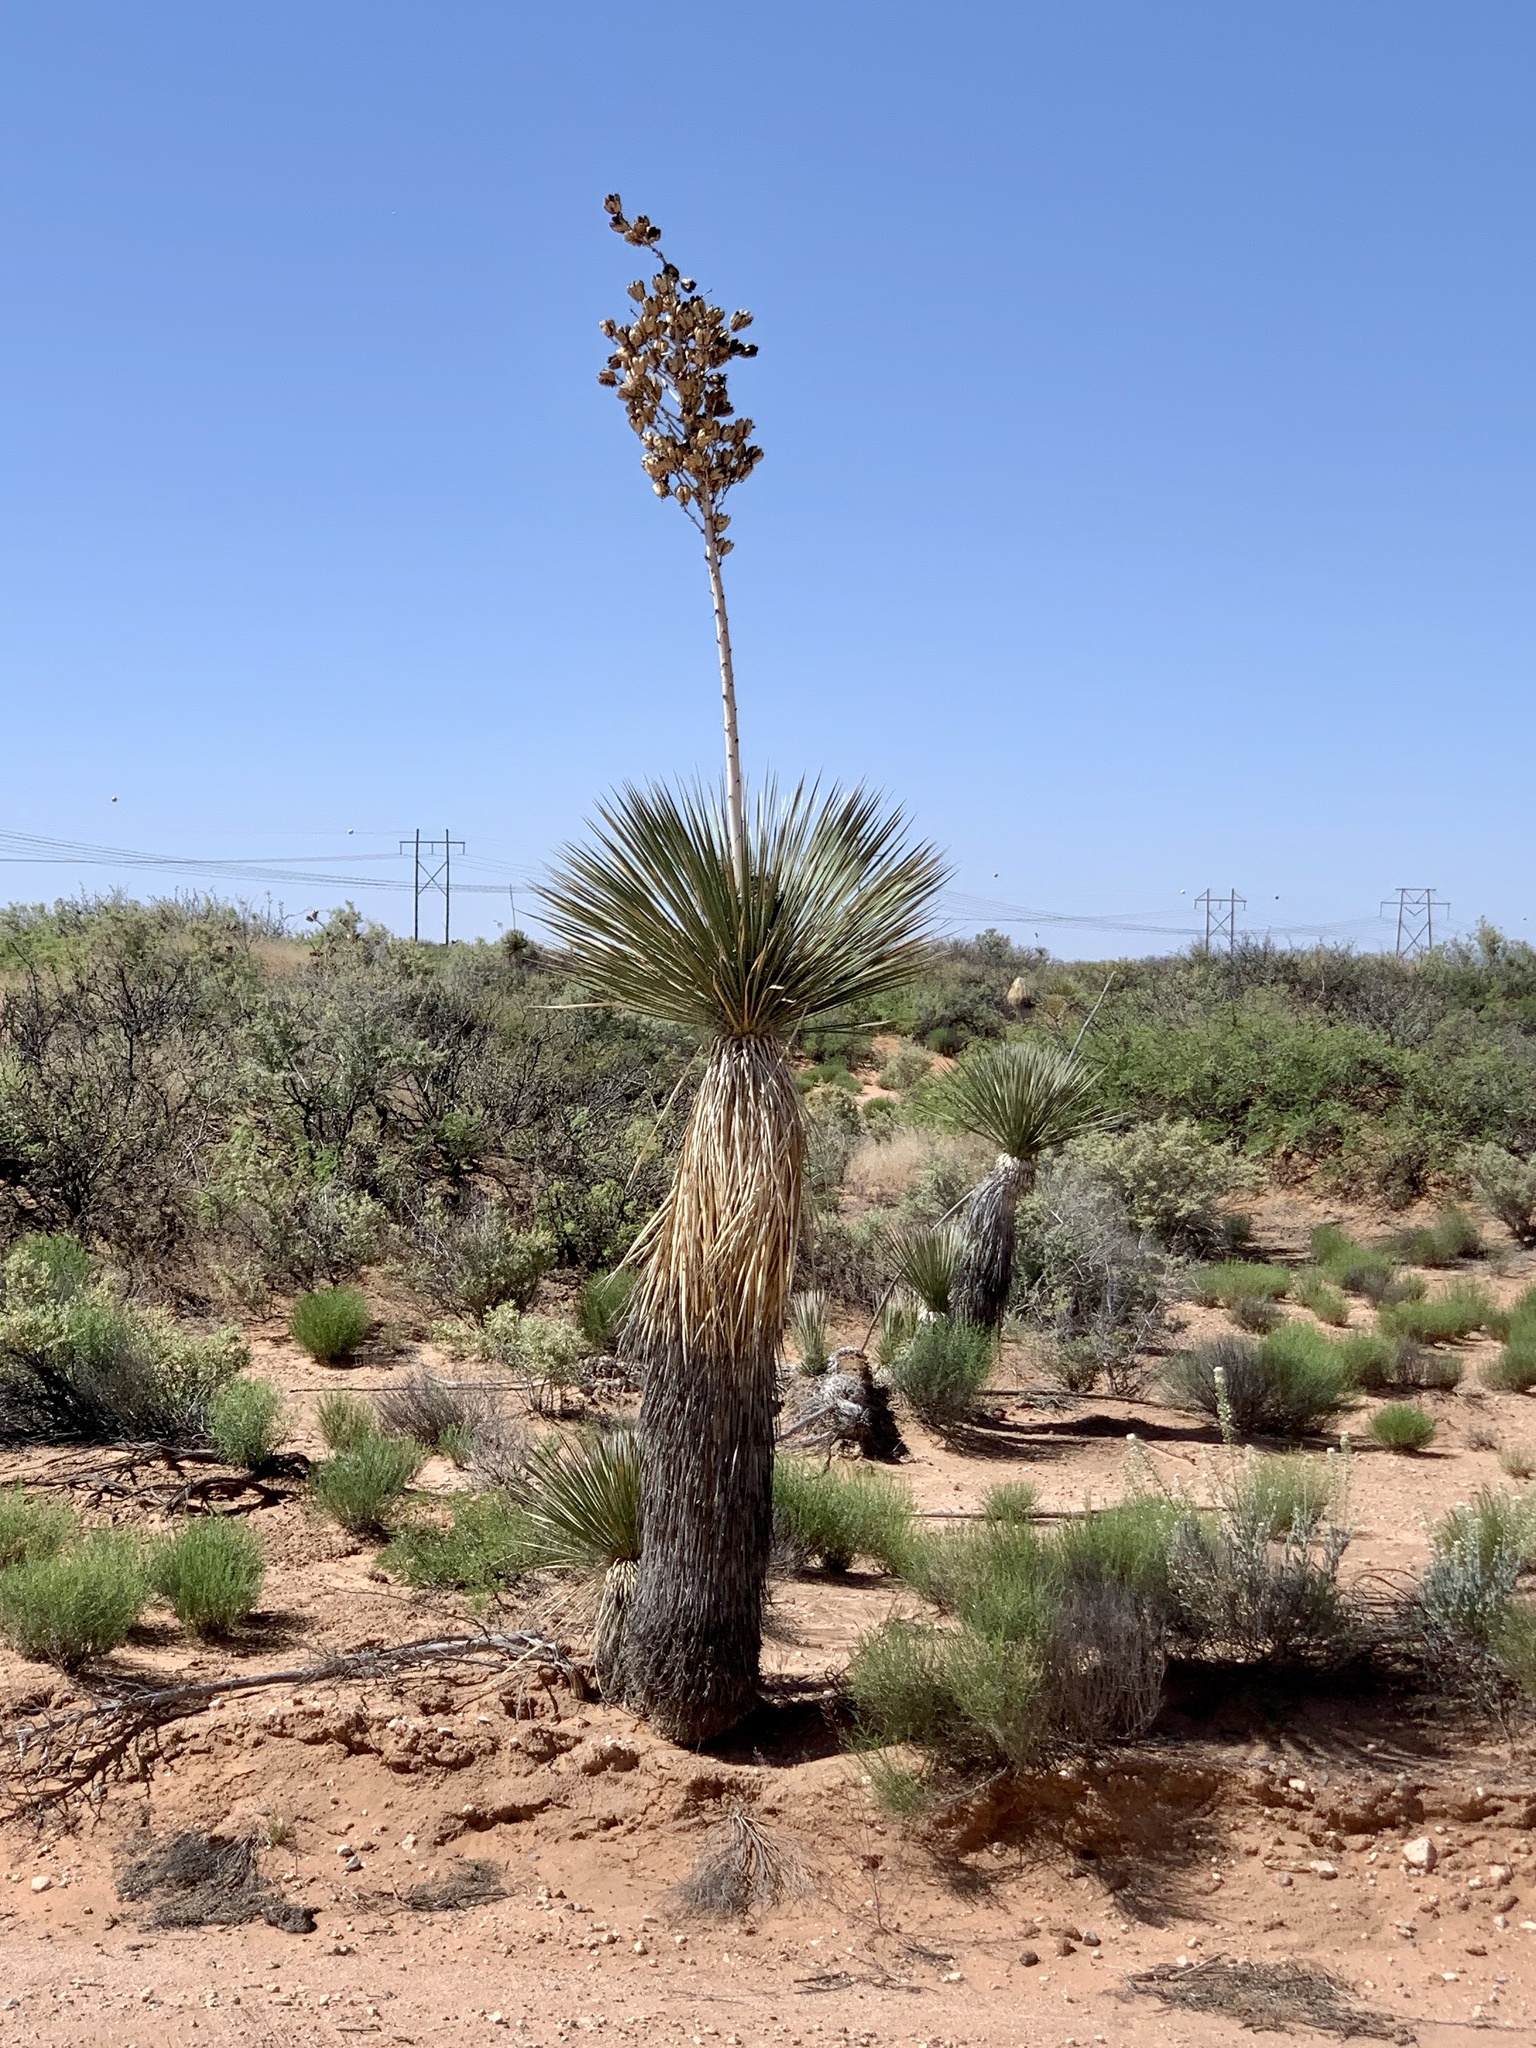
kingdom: Plantae
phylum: Tracheophyta
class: Liliopsida
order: Asparagales
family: Asparagaceae
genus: Yucca
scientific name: Yucca elata
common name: Palmella
